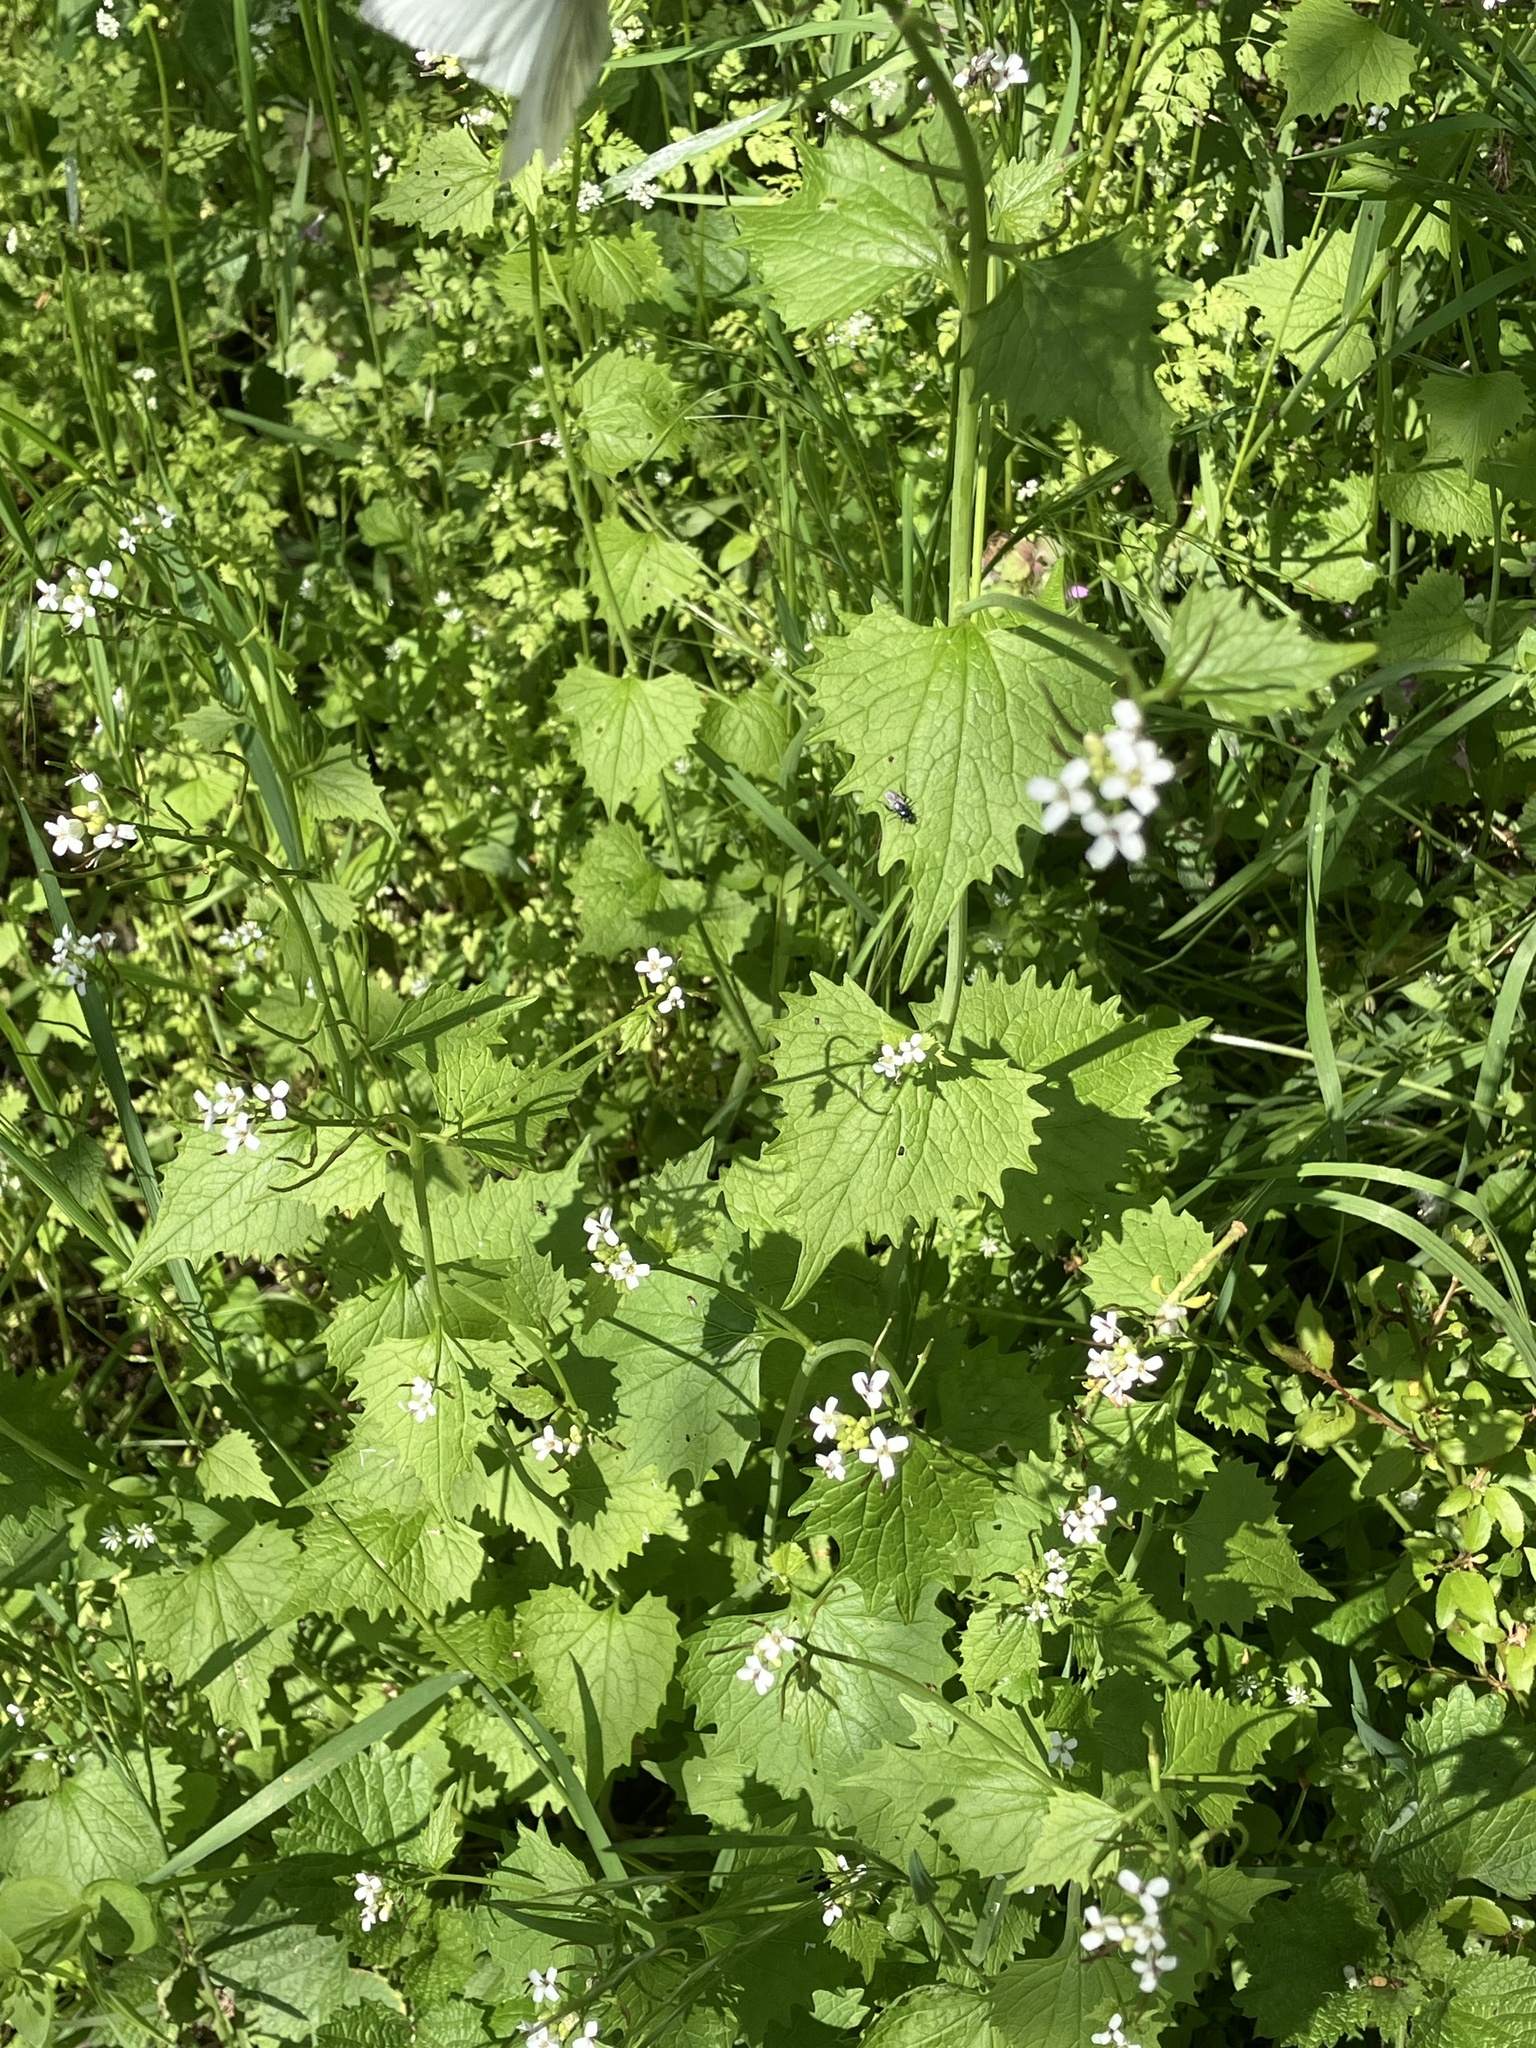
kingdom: Plantae
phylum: Tracheophyta
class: Magnoliopsida
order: Brassicales
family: Brassicaceae
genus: Alliaria
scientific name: Alliaria petiolata
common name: Garlic mustard
